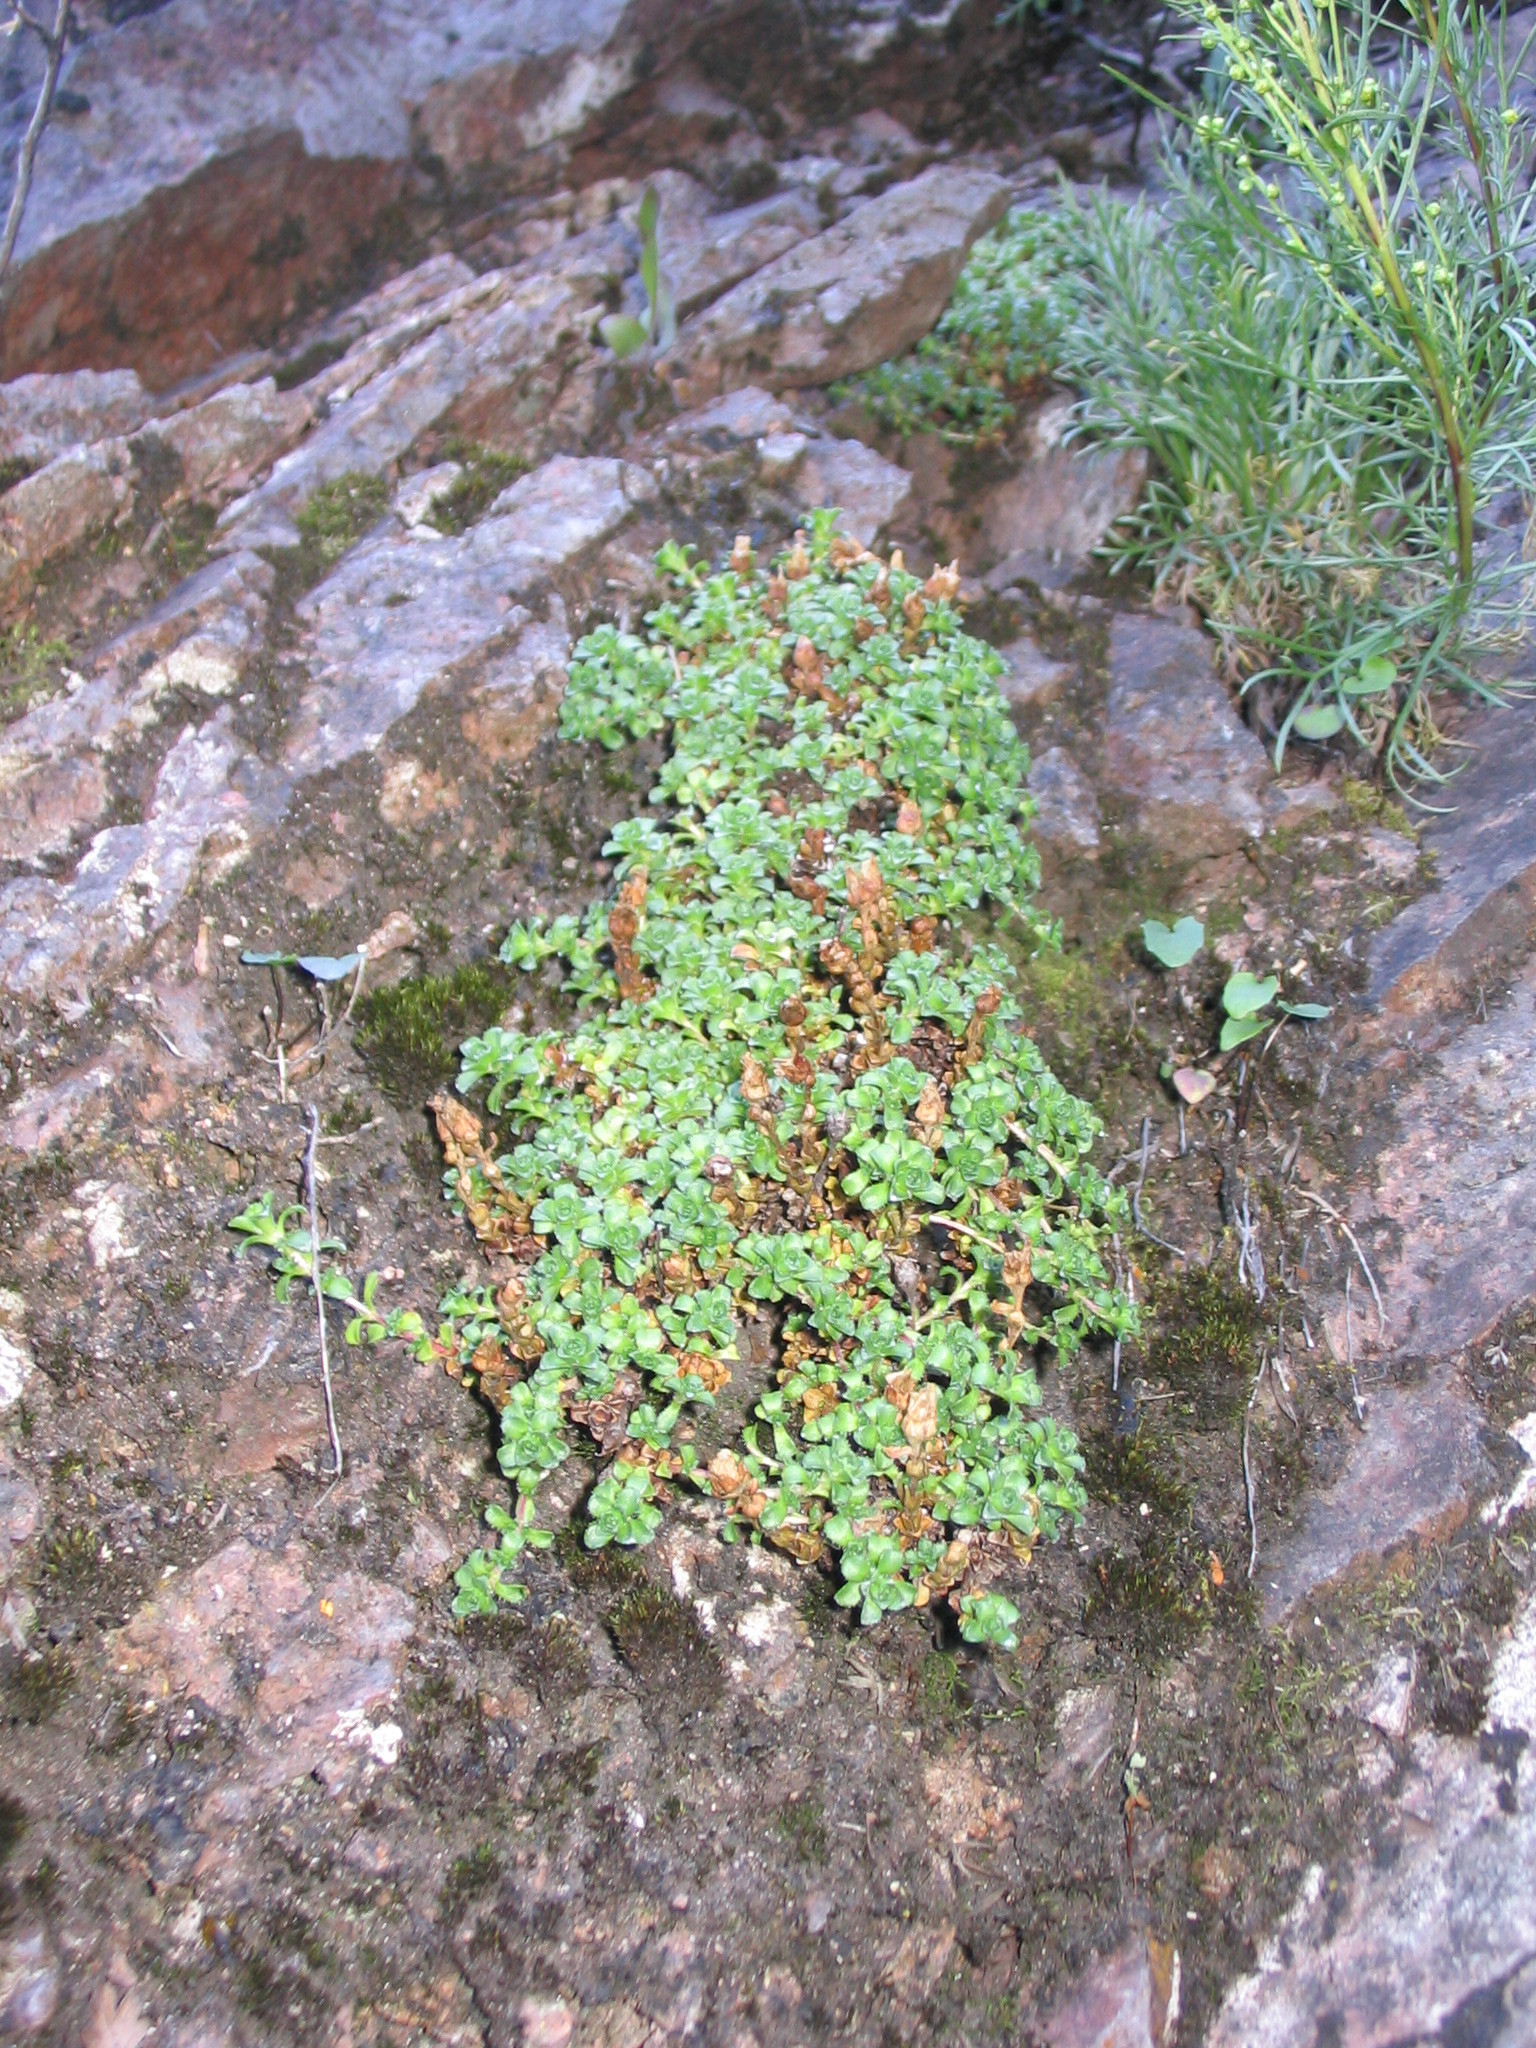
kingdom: Plantae
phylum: Tracheophyta
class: Magnoliopsida
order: Saxifragales
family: Saxifragaceae
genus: Saxifraga
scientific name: Saxifraga oppositifolia
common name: Purple saxifrage
